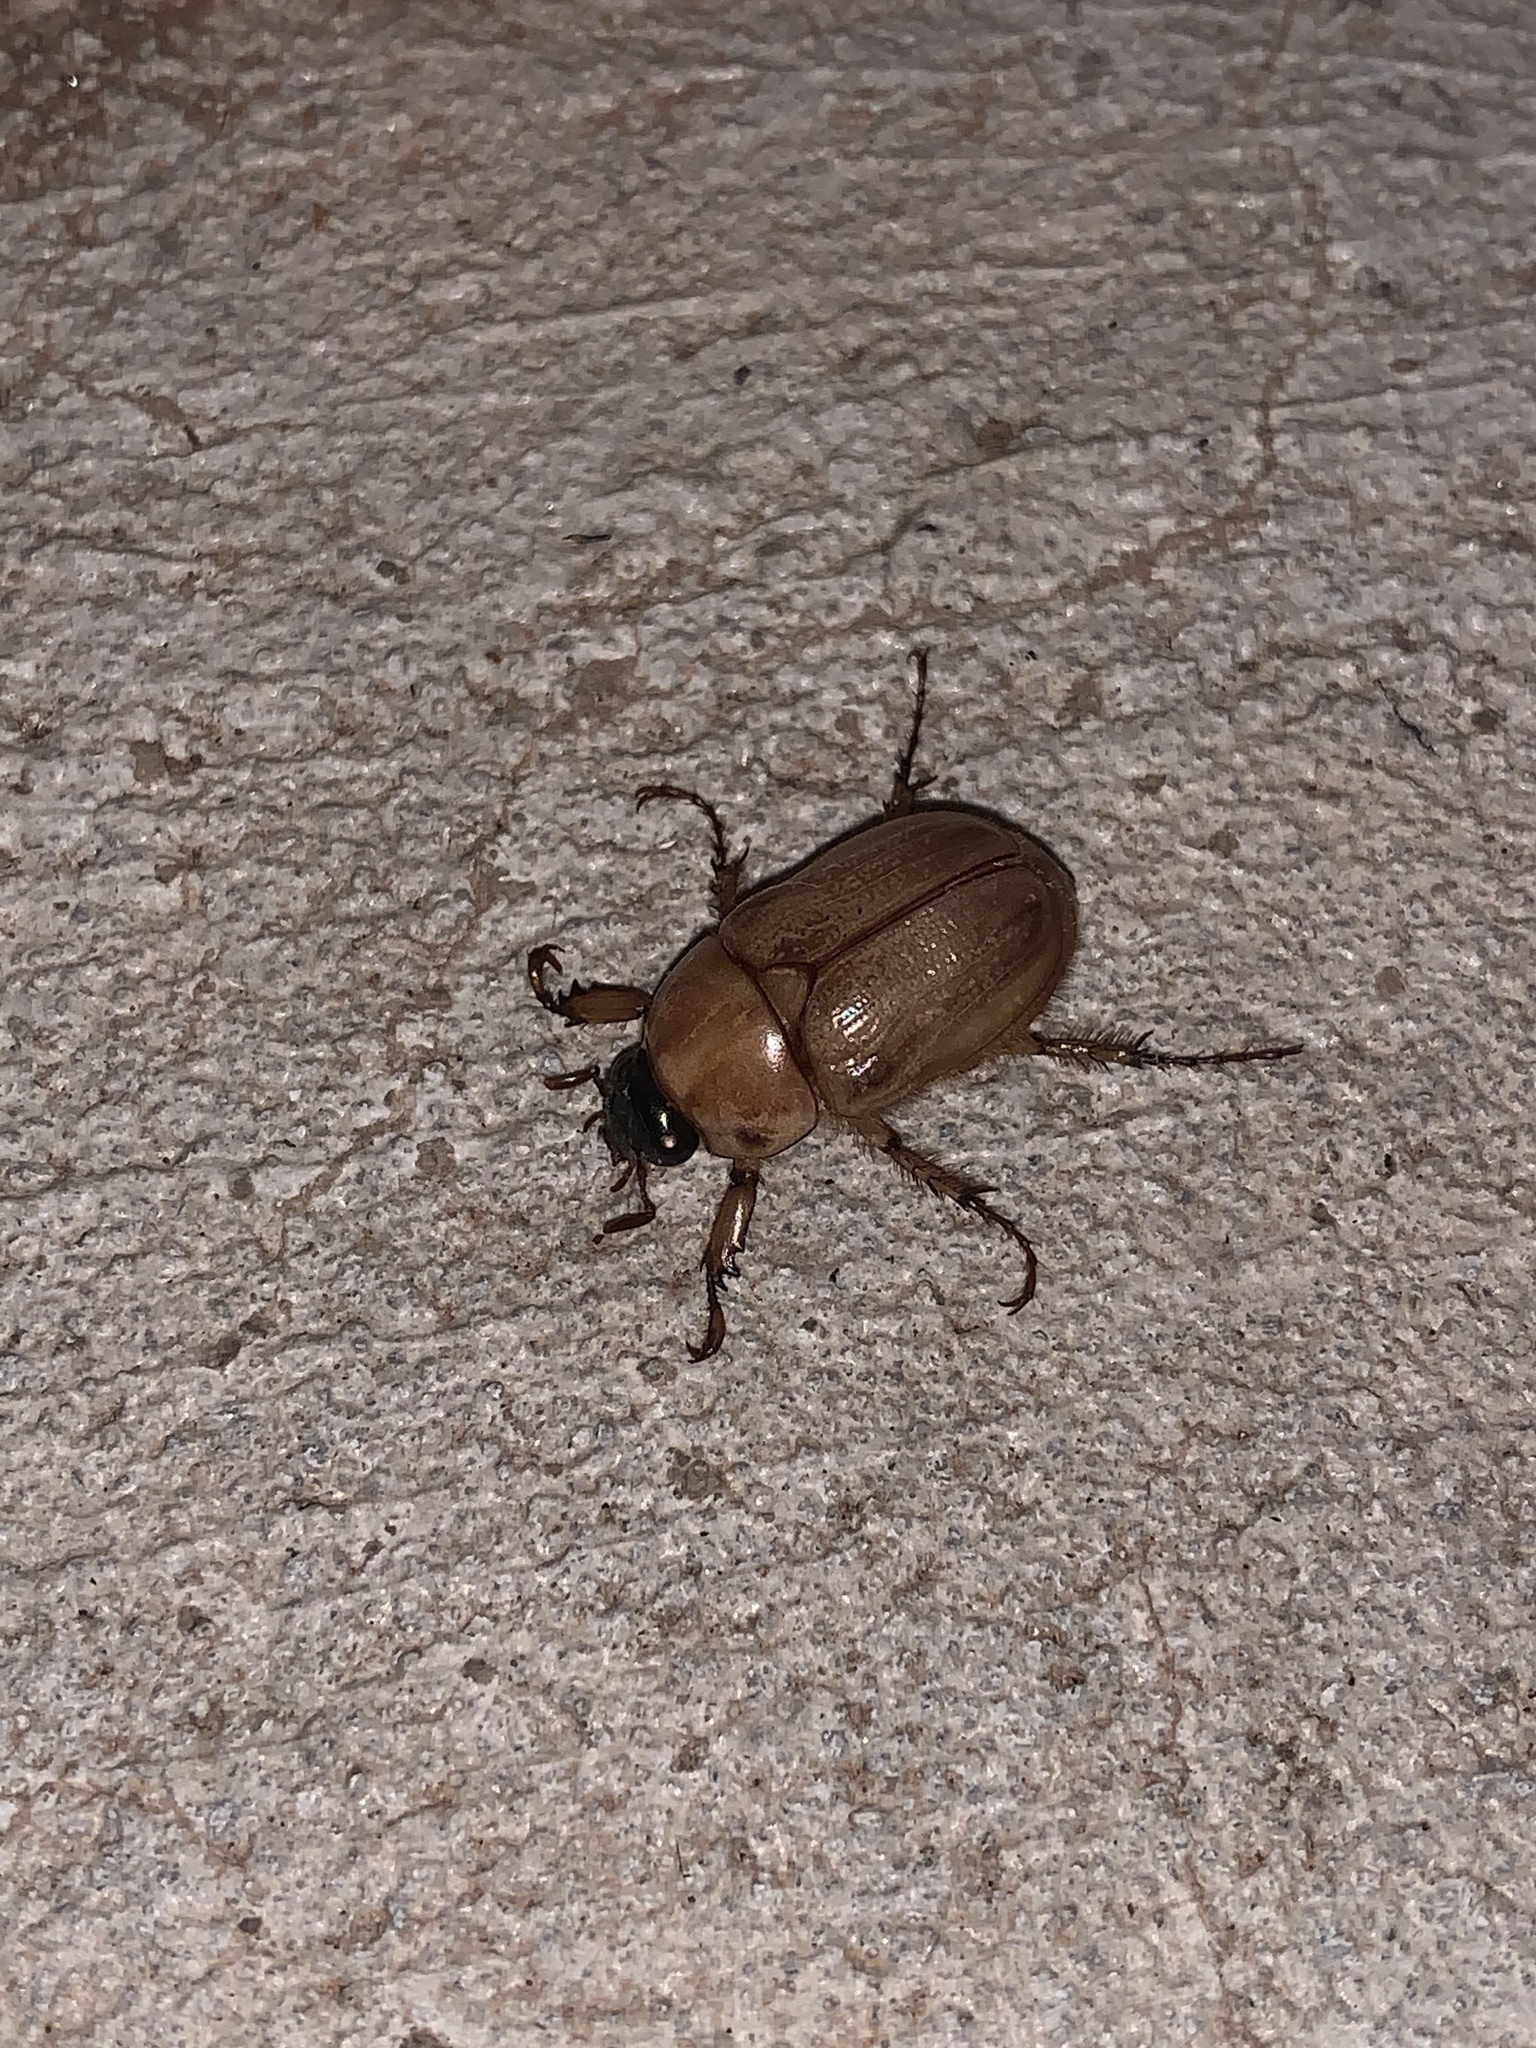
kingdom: Animalia
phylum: Arthropoda
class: Insecta
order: Coleoptera
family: Scarabaeidae
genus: Cyclocephala
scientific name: Cyclocephala signaticollis
